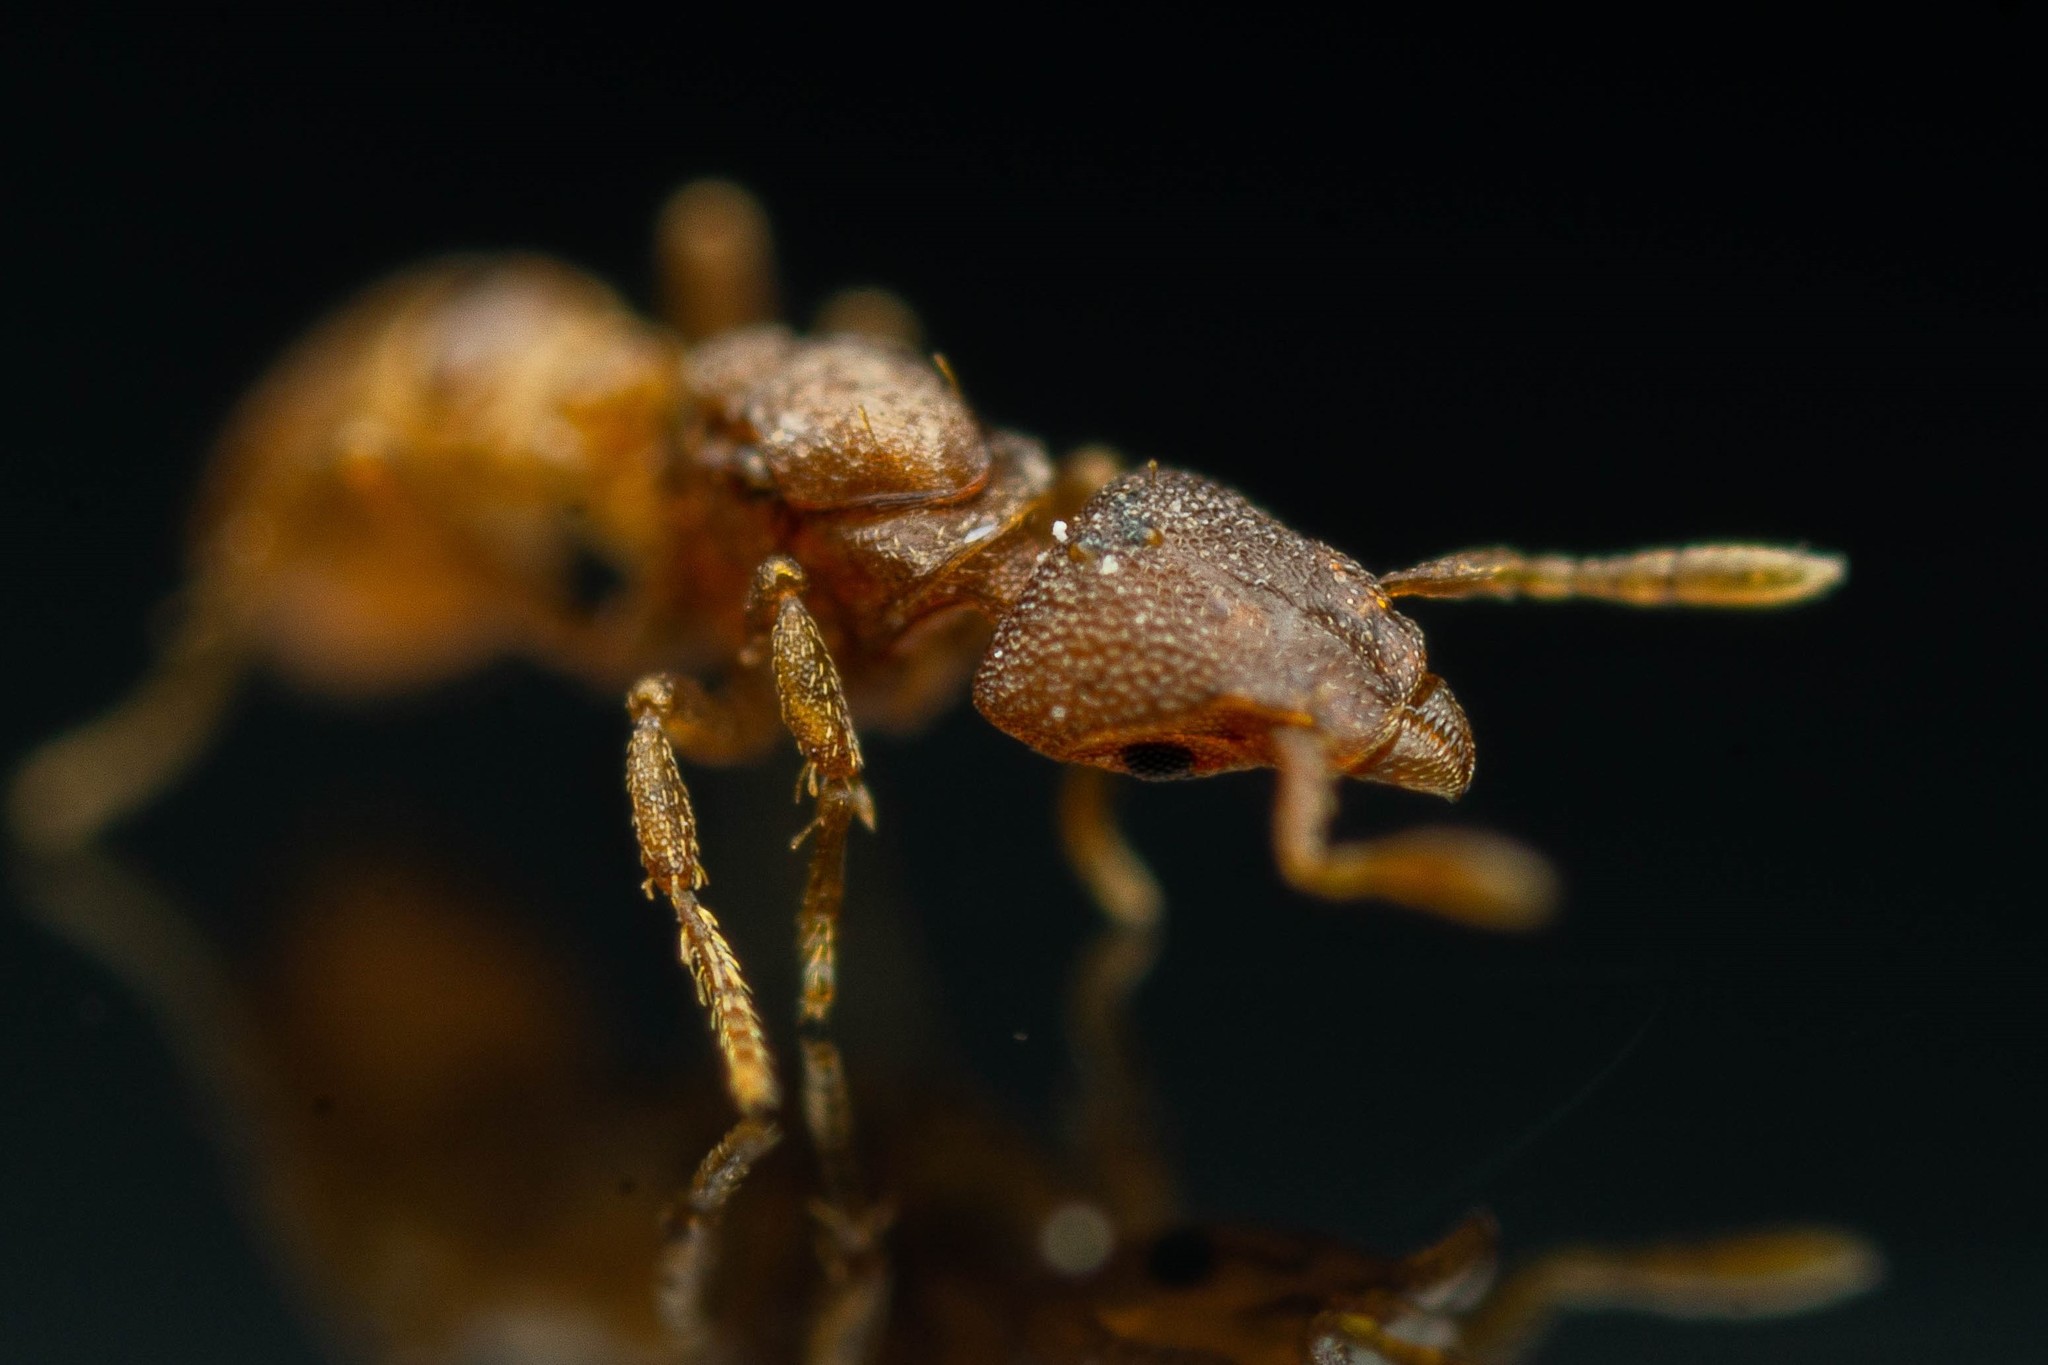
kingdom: Animalia
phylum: Arthropoda
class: Insecta
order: Hymenoptera
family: Formicidae
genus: Pyramica
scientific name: Pyramica membranifera
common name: Ant
